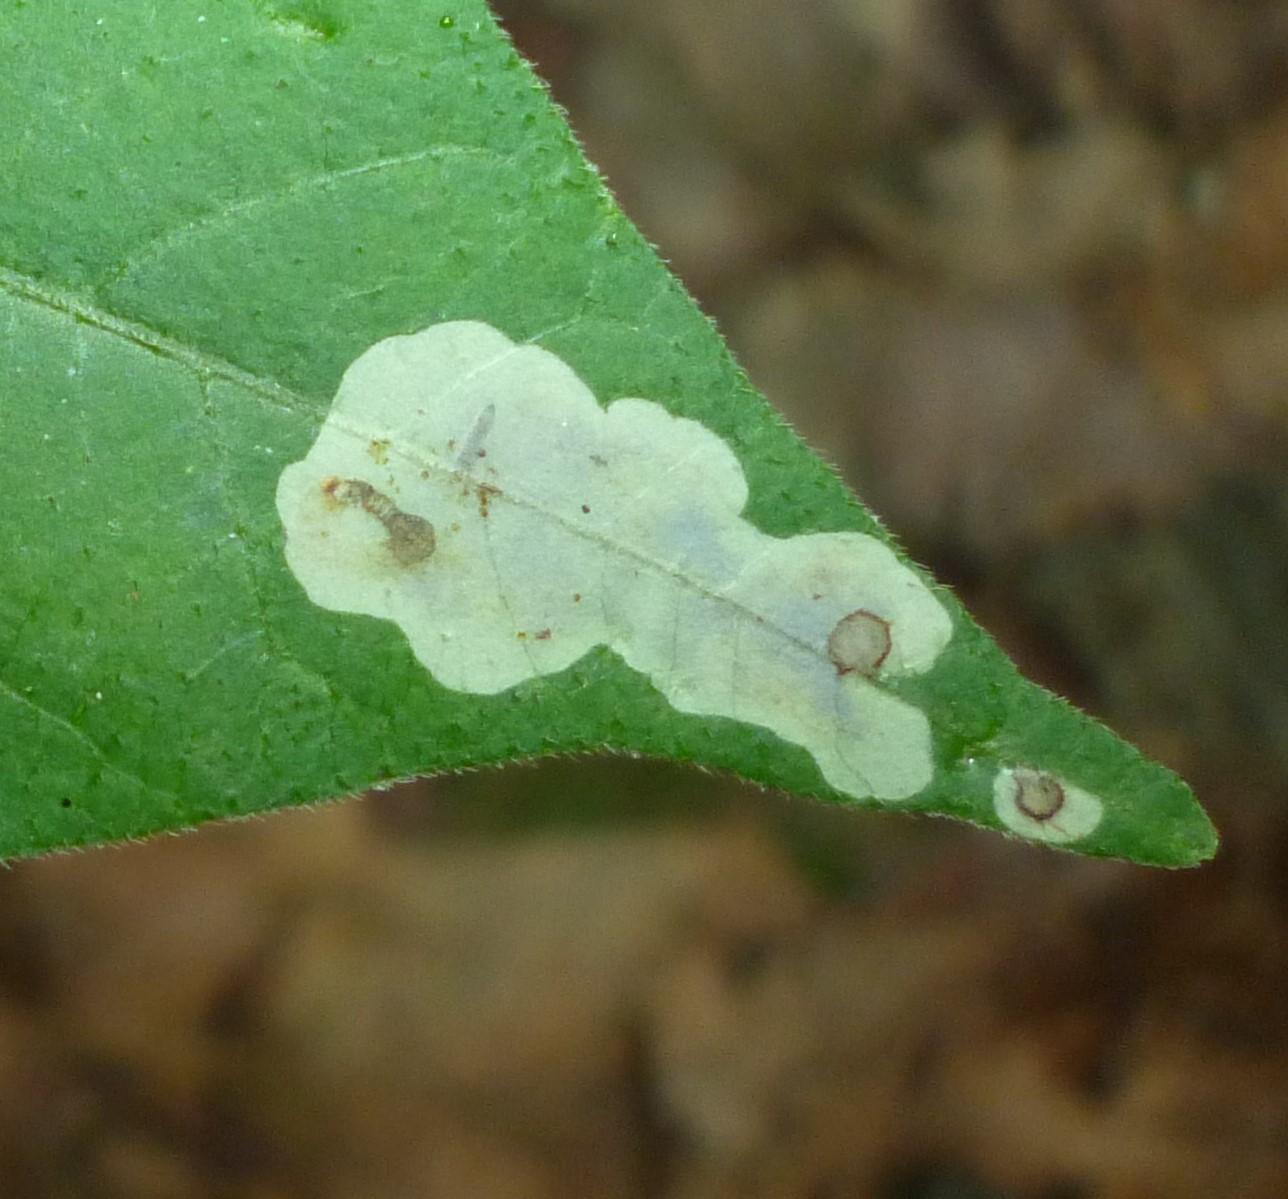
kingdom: Animalia
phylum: Arthropoda
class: Insecta
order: Lepidoptera
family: Gracillariidae
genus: Cameraria
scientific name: Cameraria guttifinitella
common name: Poison ivy leaf-miner moth
